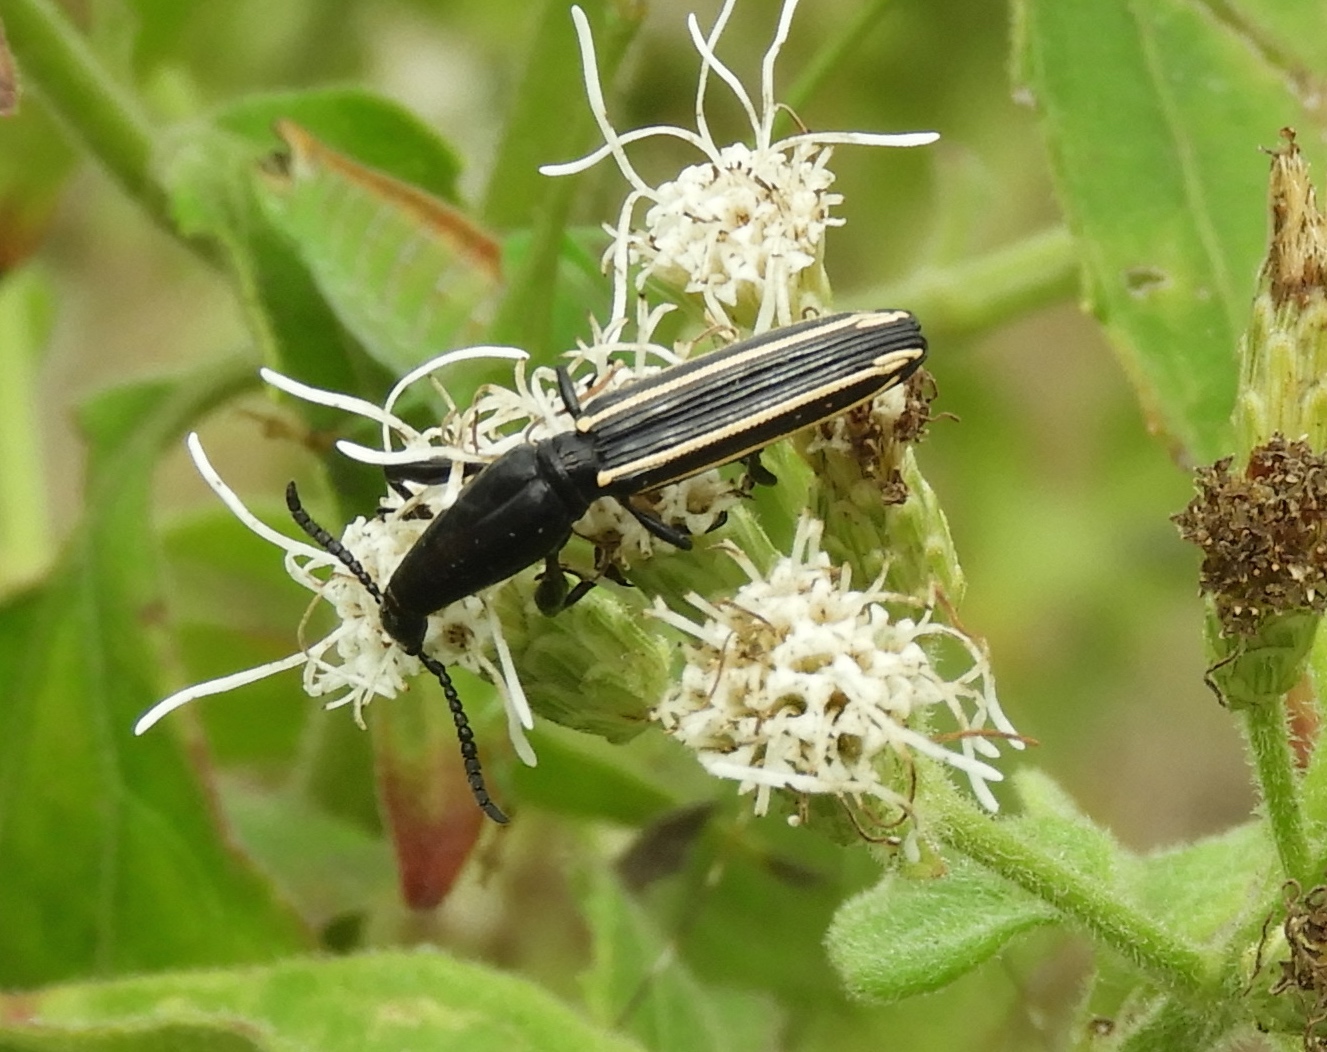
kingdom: Animalia
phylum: Arthropoda
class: Insecta
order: Coleoptera
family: Brentidae
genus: Brentus
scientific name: Brentus anchorago
